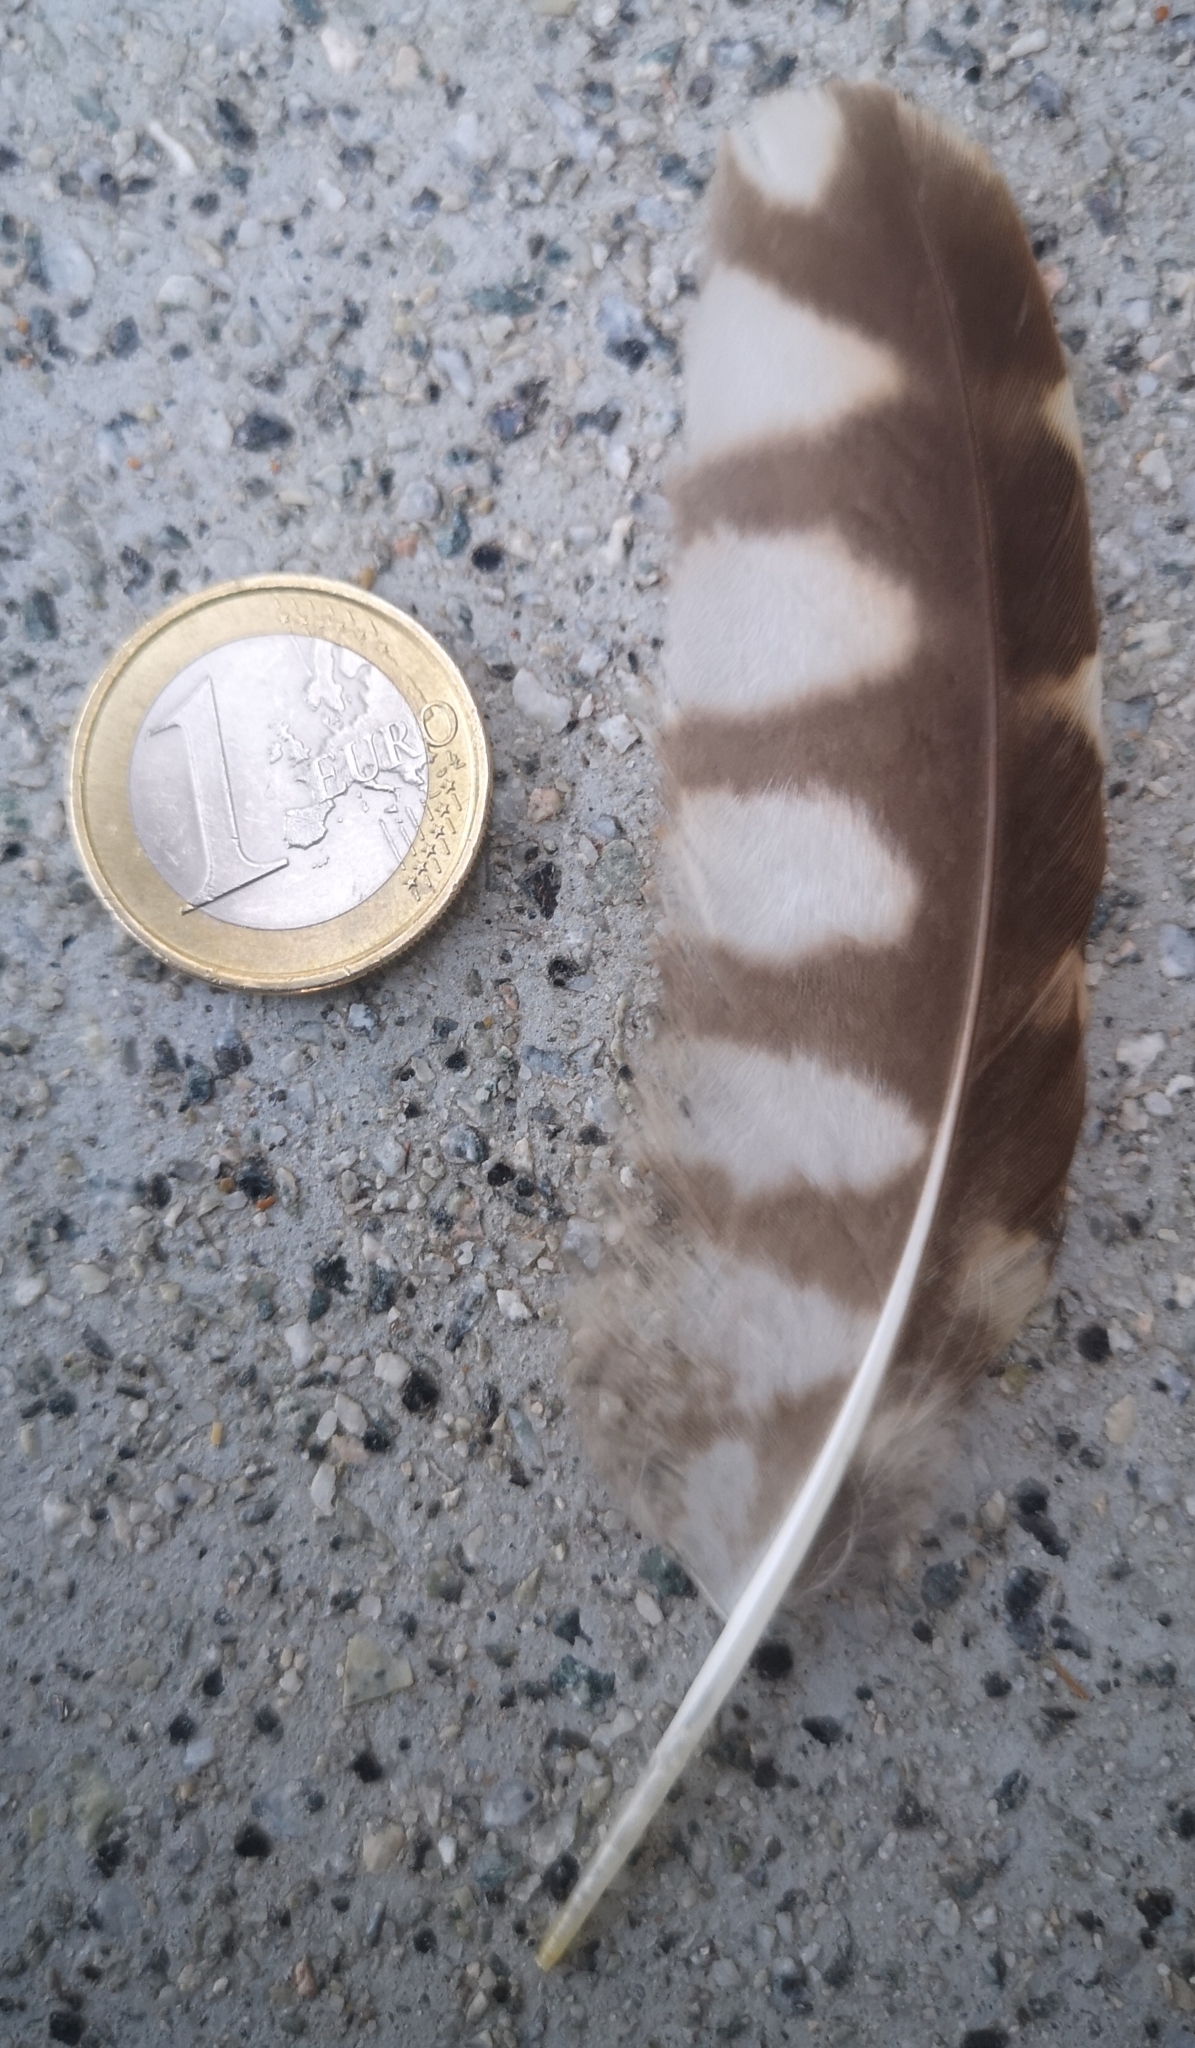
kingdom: Animalia
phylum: Chordata
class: Aves
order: Strigiformes
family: Strigidae
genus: Athene
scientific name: Athene noctua
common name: Little owl
